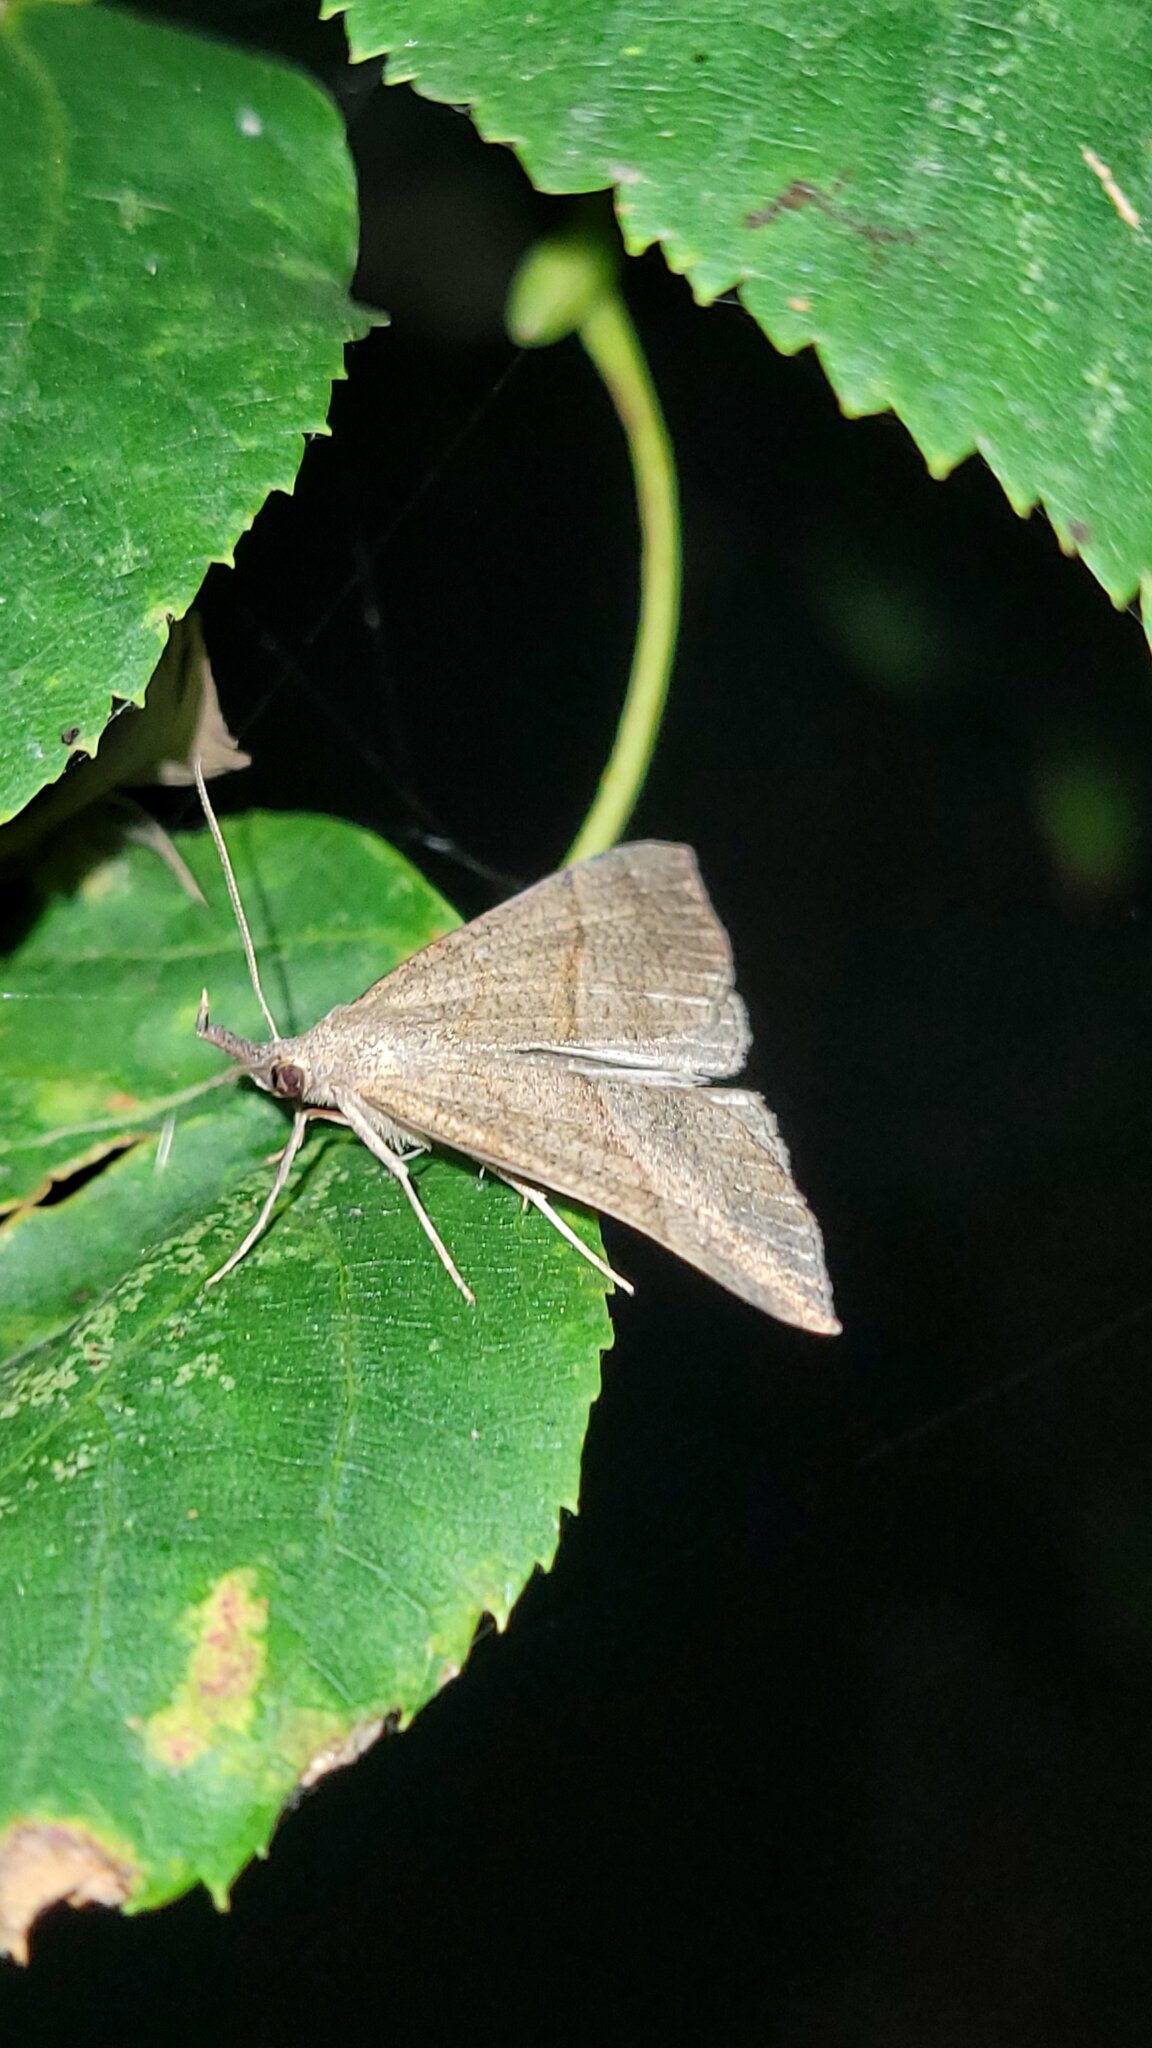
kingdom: Animalia
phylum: Arthropoda
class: Insecta
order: Lepidoptera
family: Erebidae
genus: Hypena
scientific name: Hypena proboscidalis
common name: Snout
